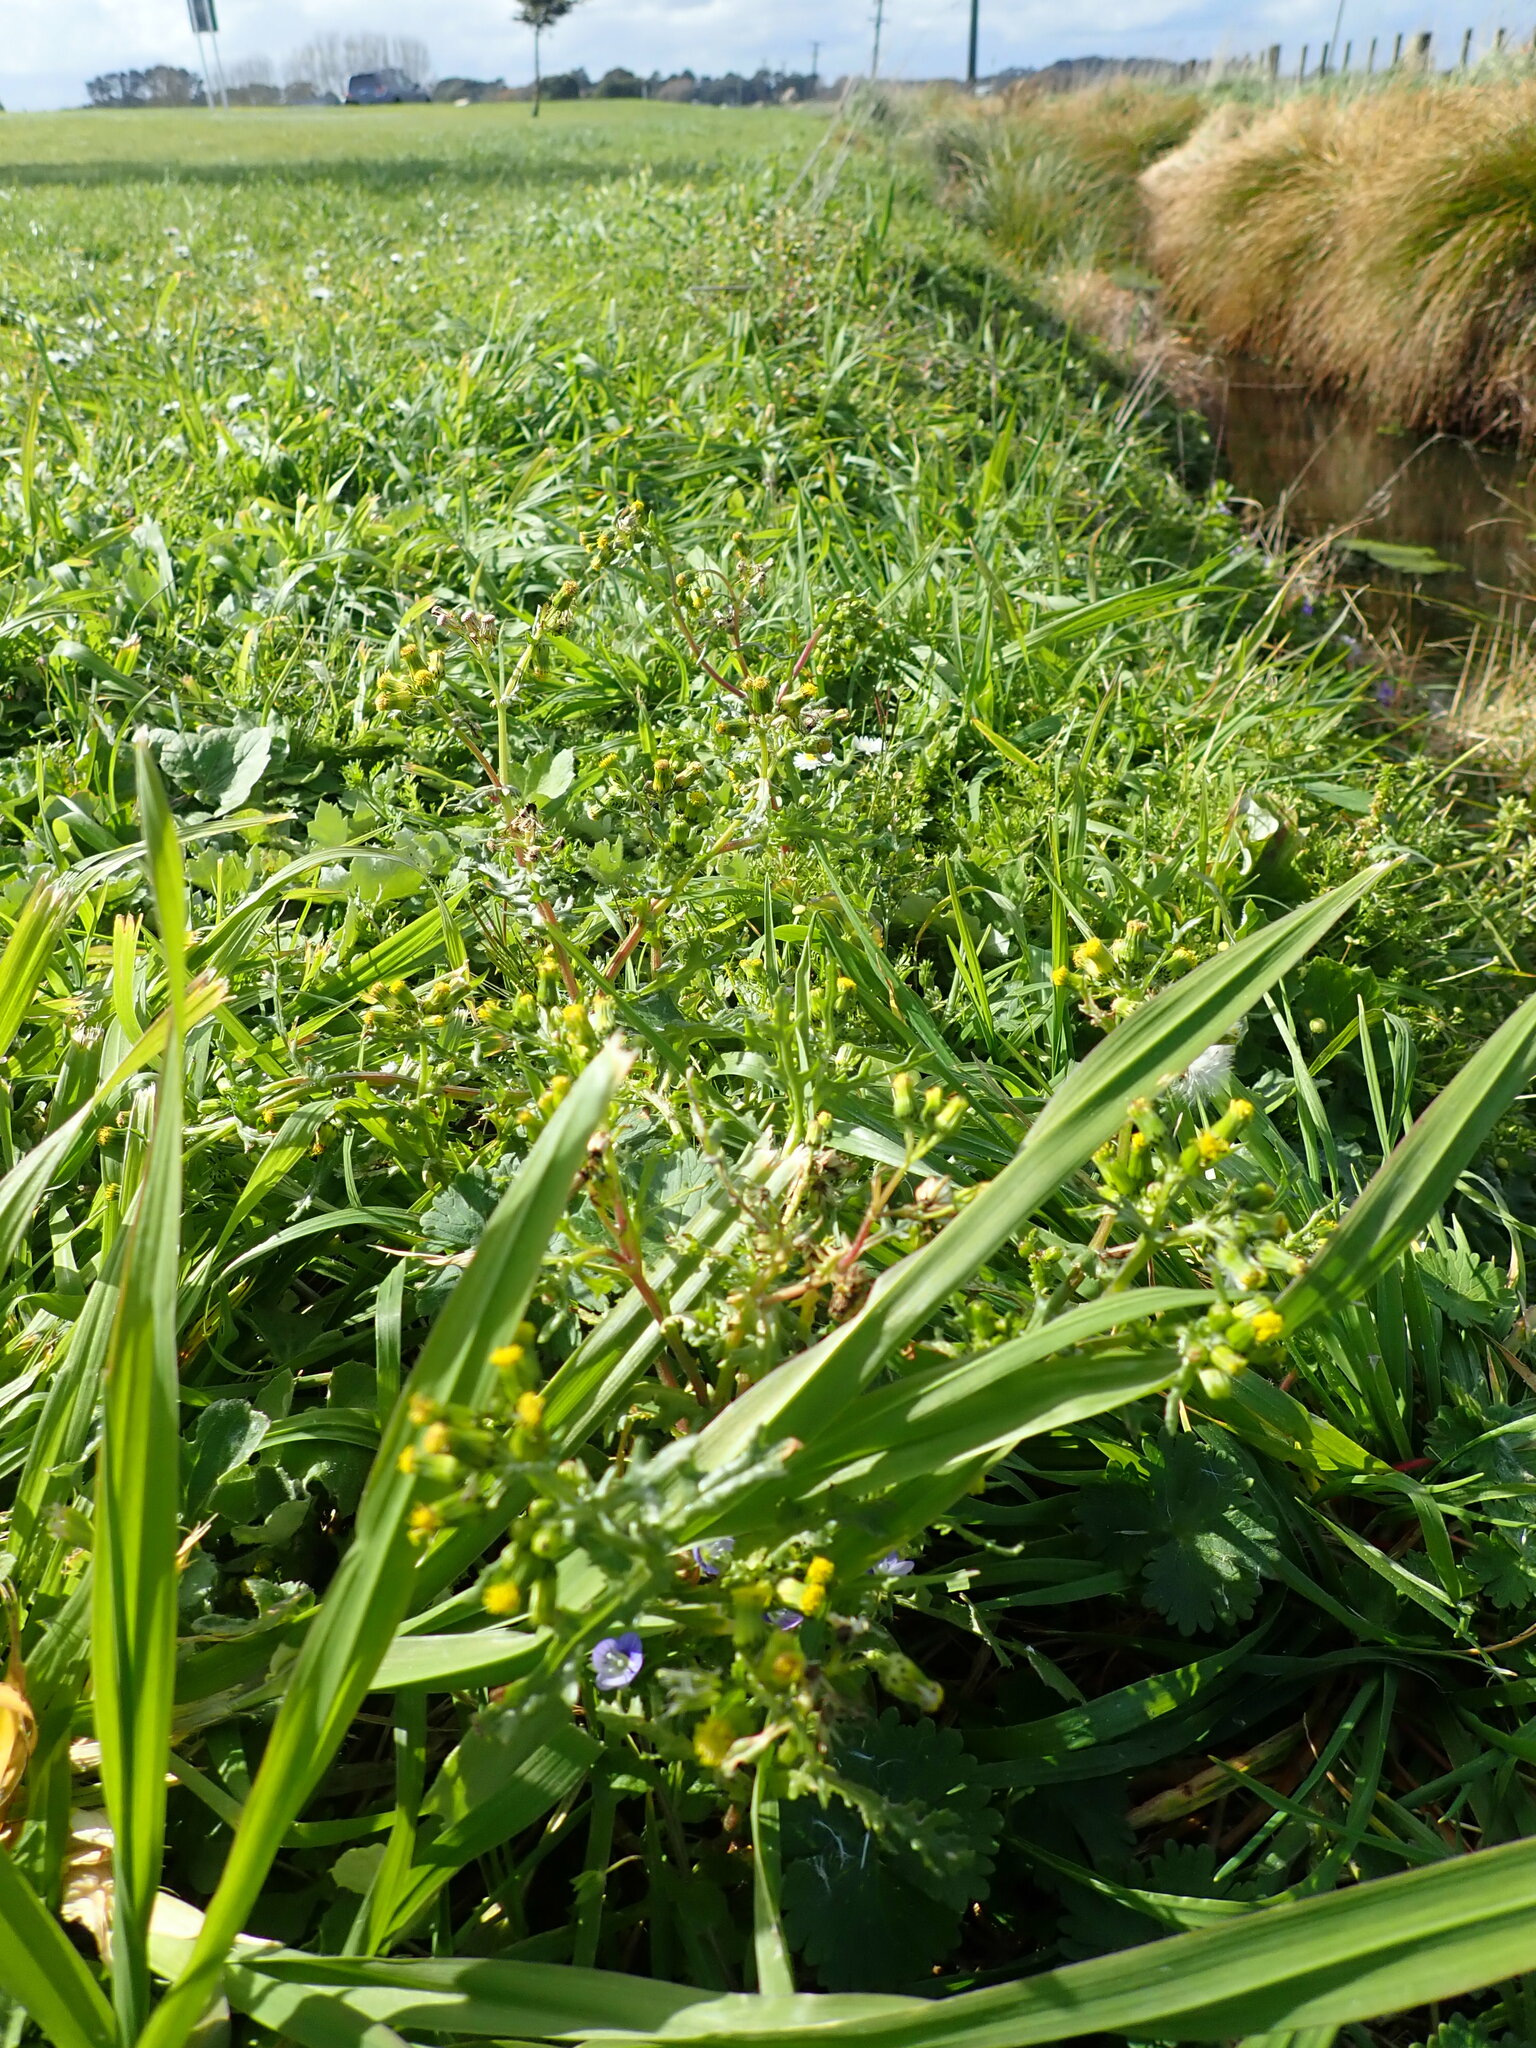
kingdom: Plantae
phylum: Tracheophyta
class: Magnoliopsida
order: Asterales
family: Asteraceae
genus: Senecio
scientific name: Senecio vulgaris
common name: Old-man-in-the-spring
